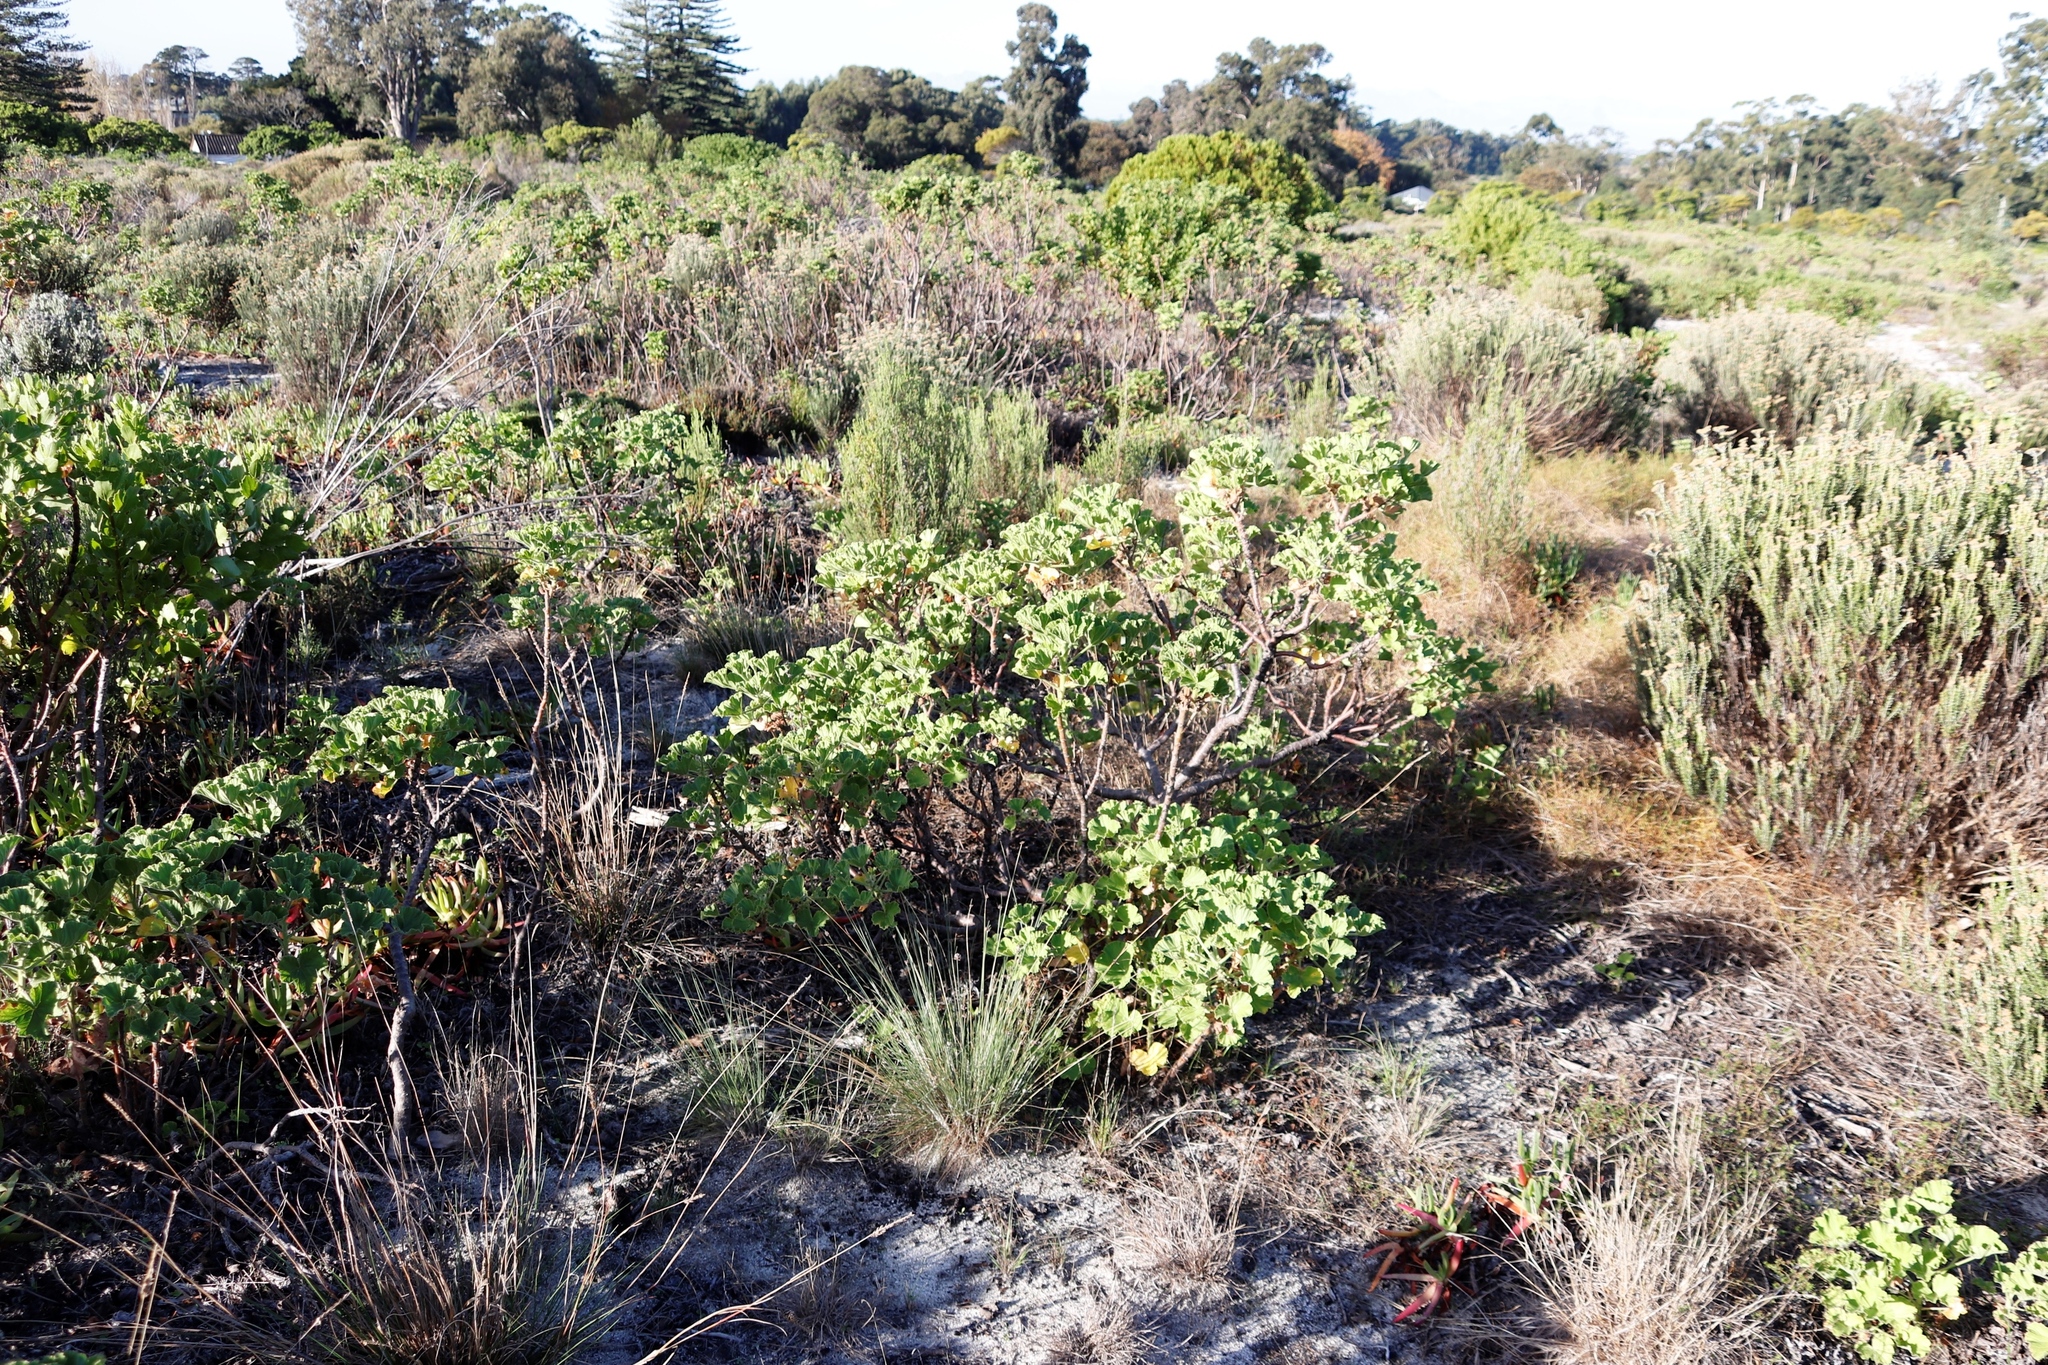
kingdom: Plantae
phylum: Tracheophyta
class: Magnoliopsida
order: Geraniales
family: Geraniaceae
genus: Pelargonium
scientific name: Pelargonium cucullatum
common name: Tree pelargonium
